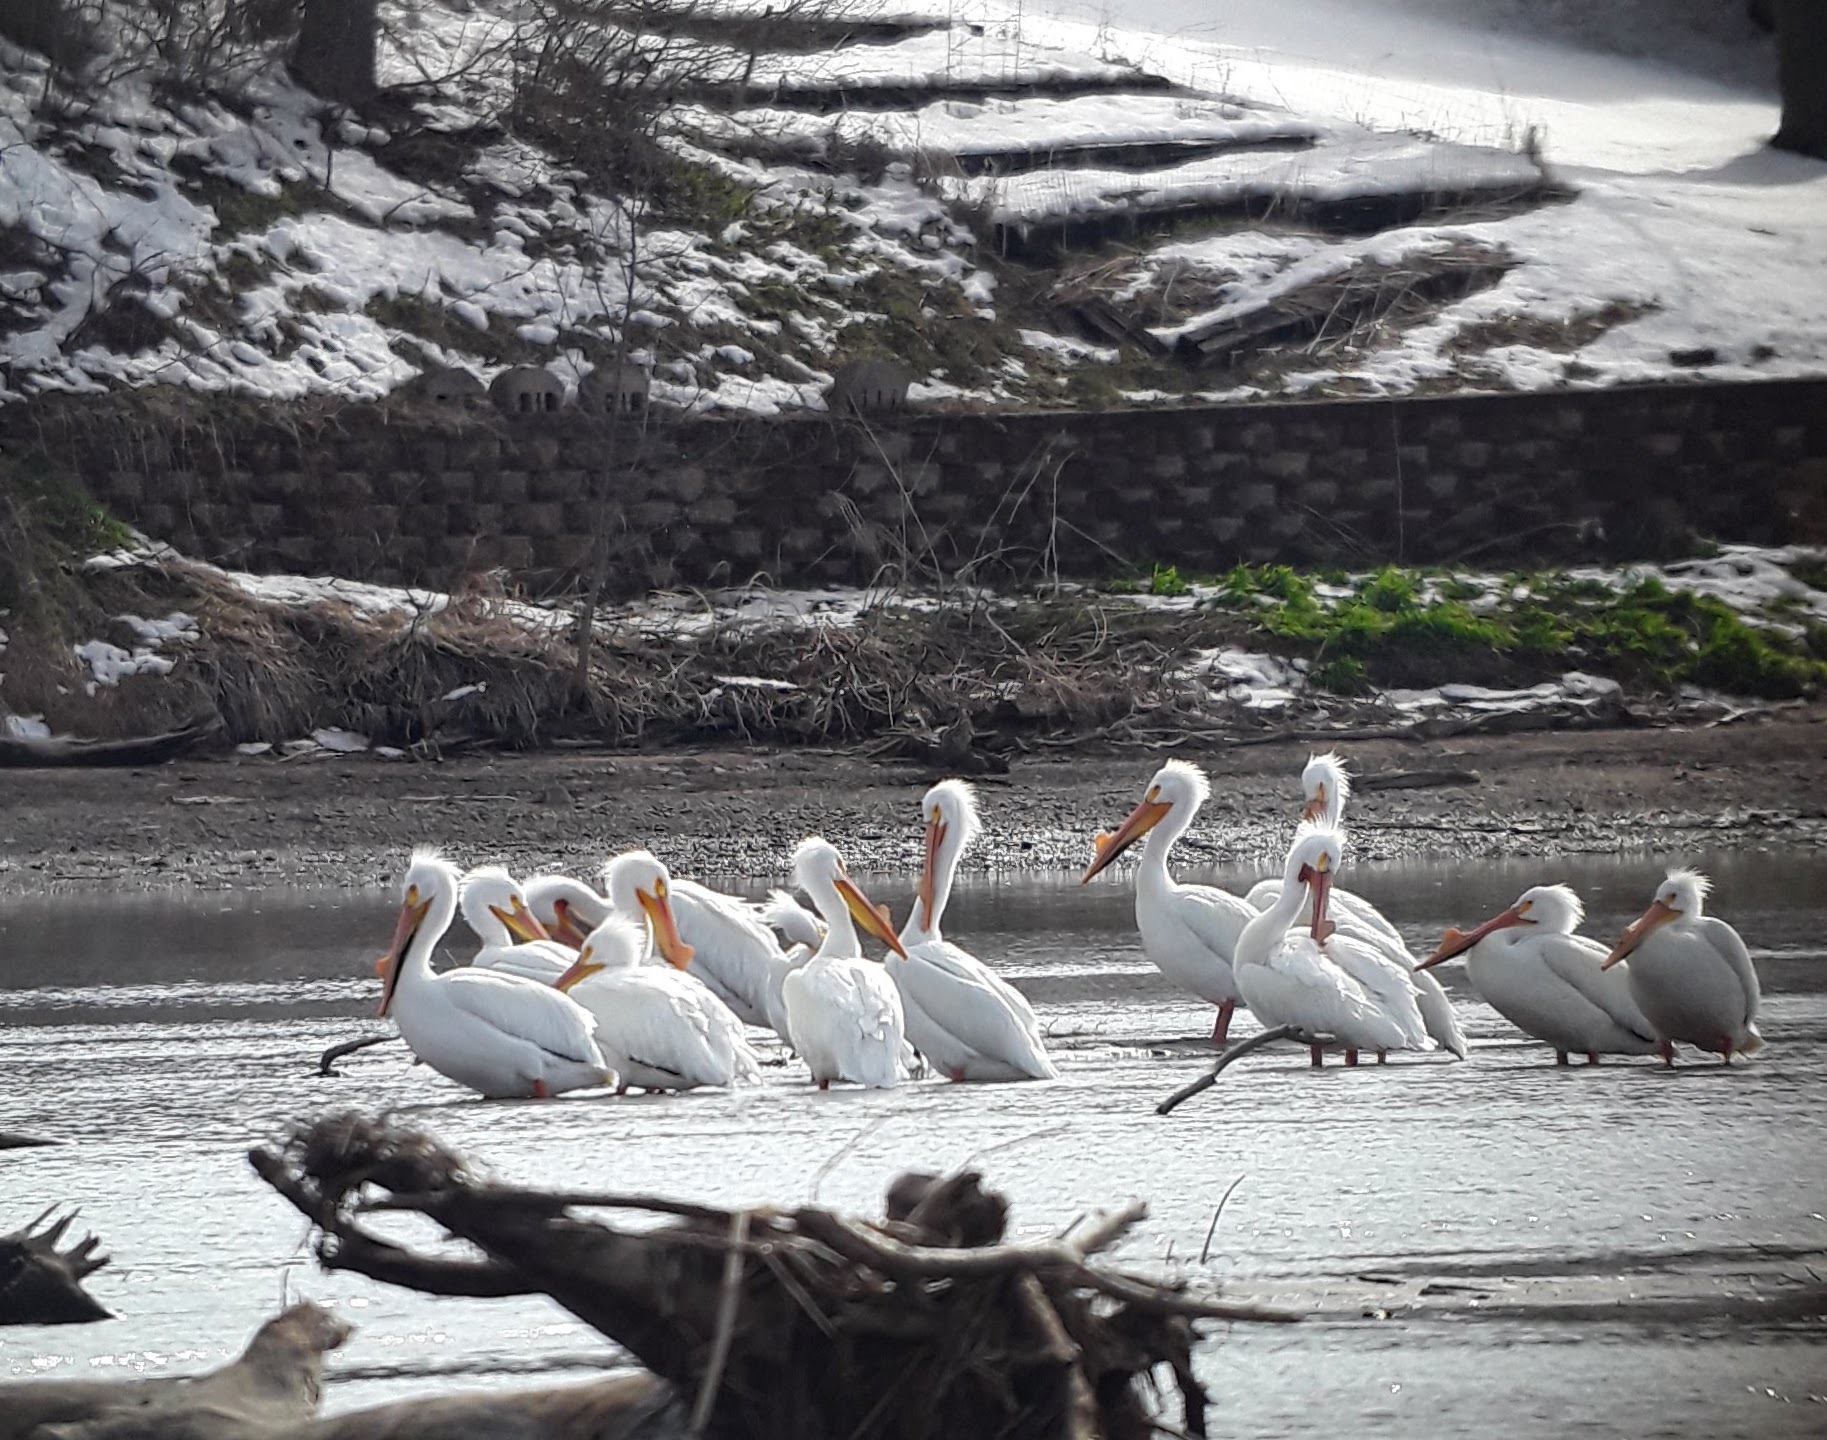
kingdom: Animalia
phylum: Chordata
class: Aves
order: Pelecaniformes
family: Pelecanidae
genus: Pelecanus
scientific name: Pelecanus erythrorhynchos
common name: American white pelican
